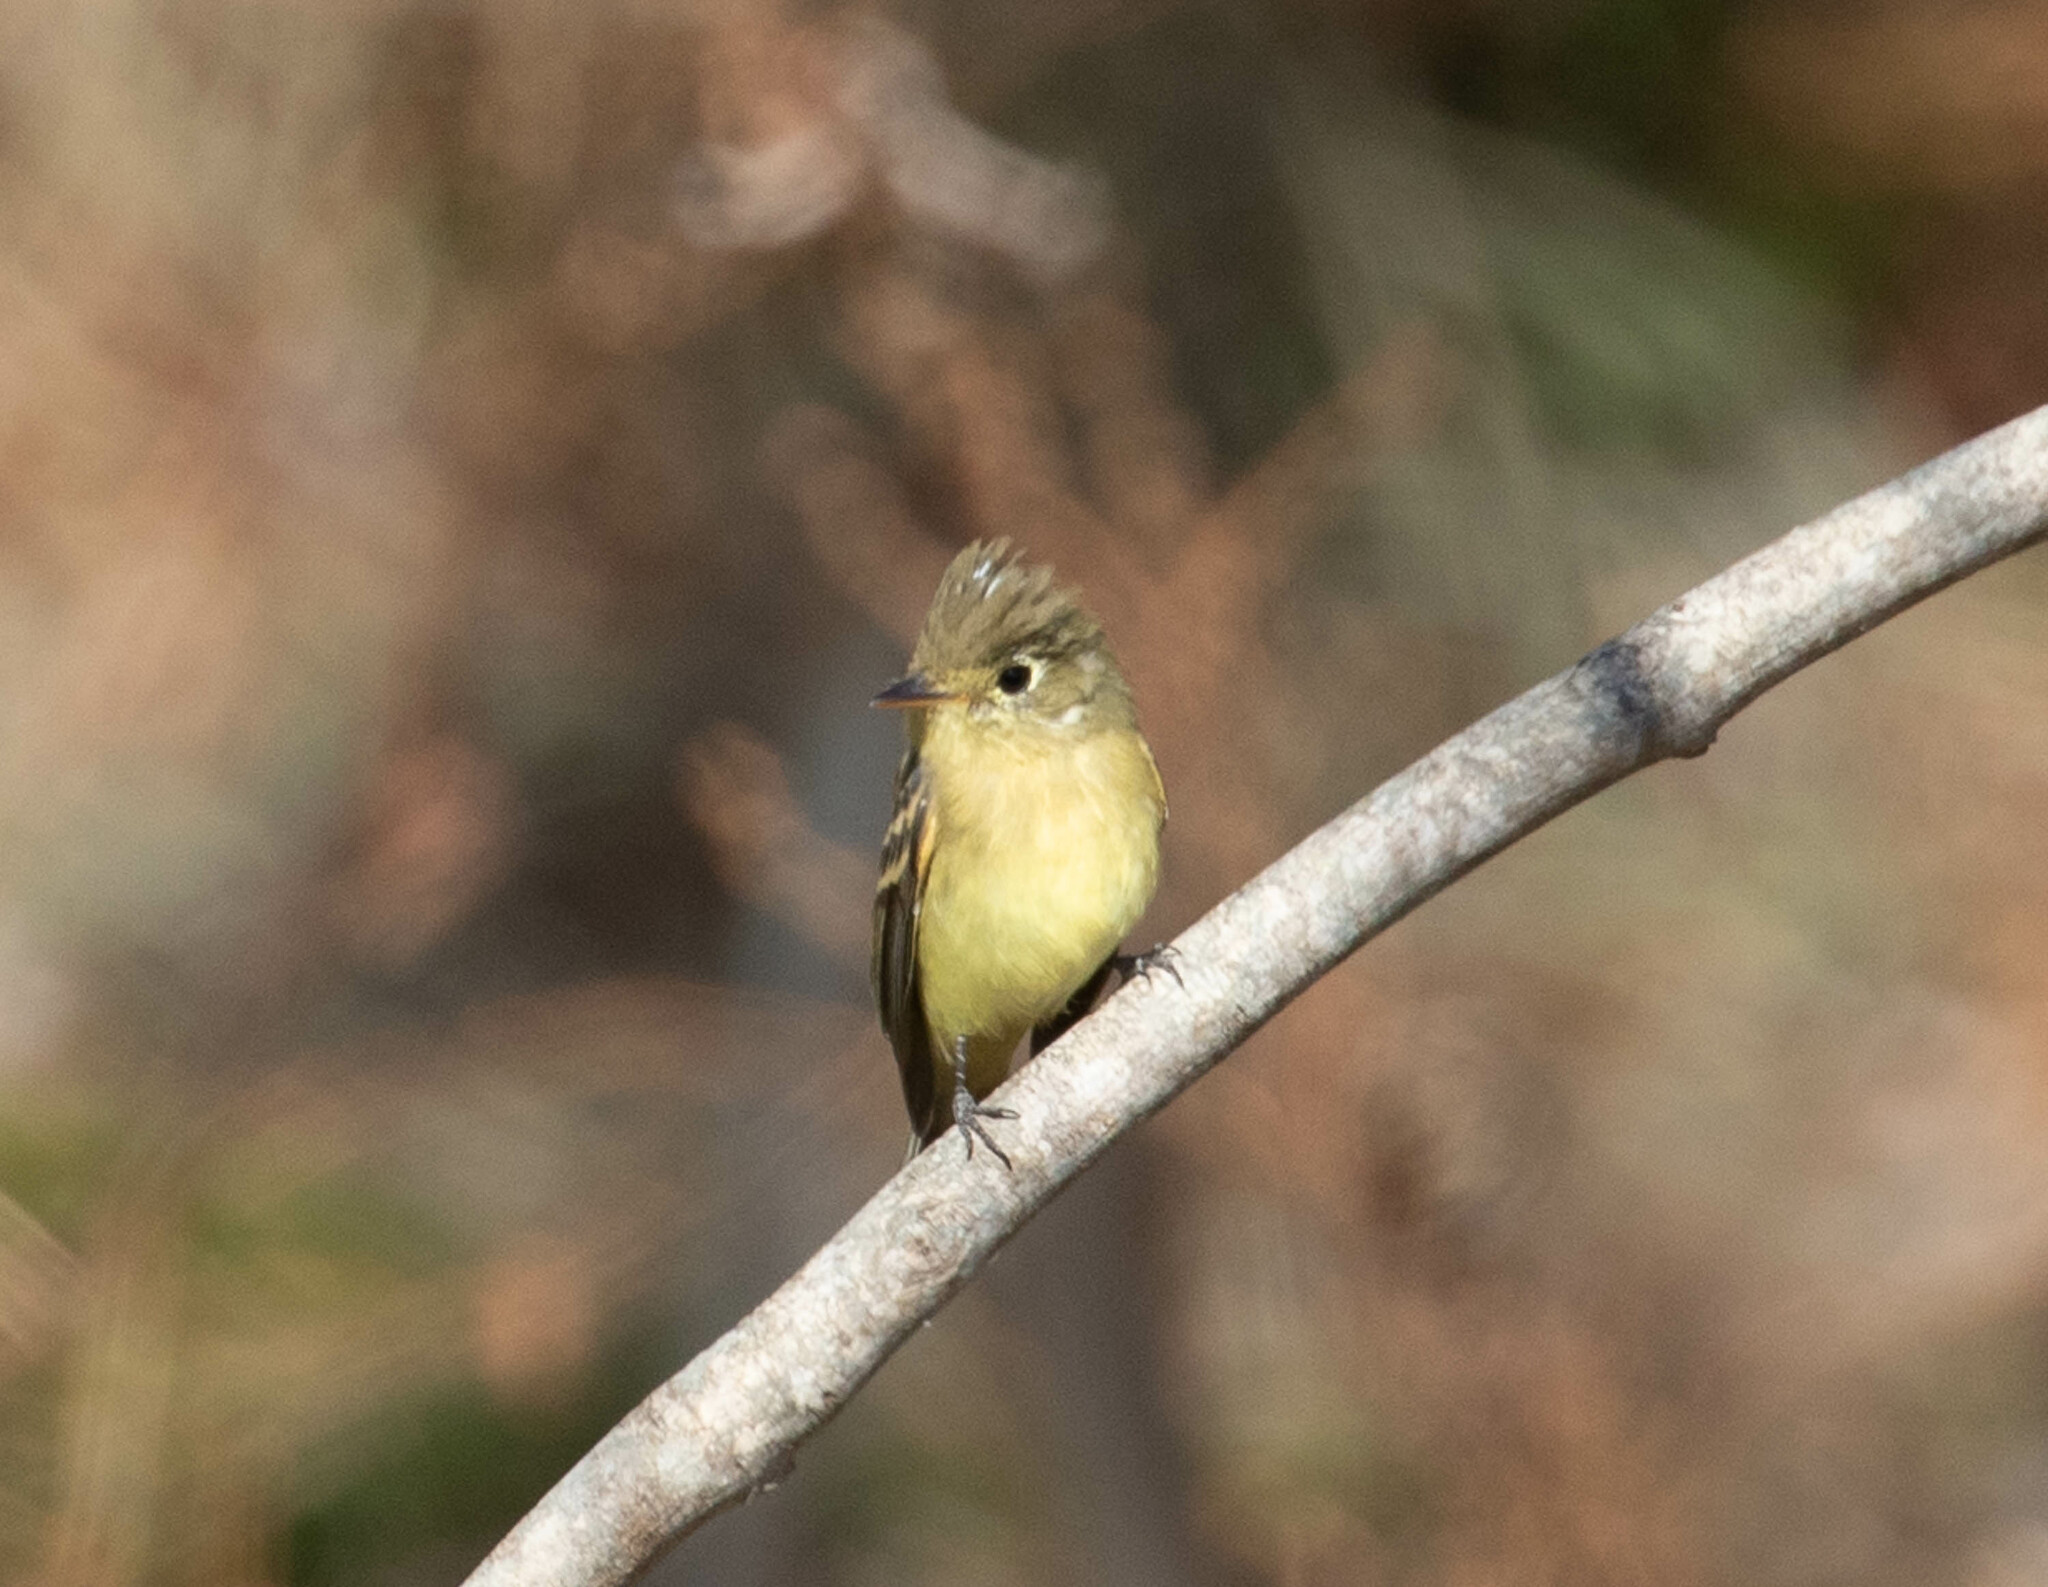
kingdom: Animalia
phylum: Chordata
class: Aves
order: Passeriformes
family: Tyrannidae
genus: Empidonax
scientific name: Empidonax difficilis
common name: Pacific-slope flycatcher
